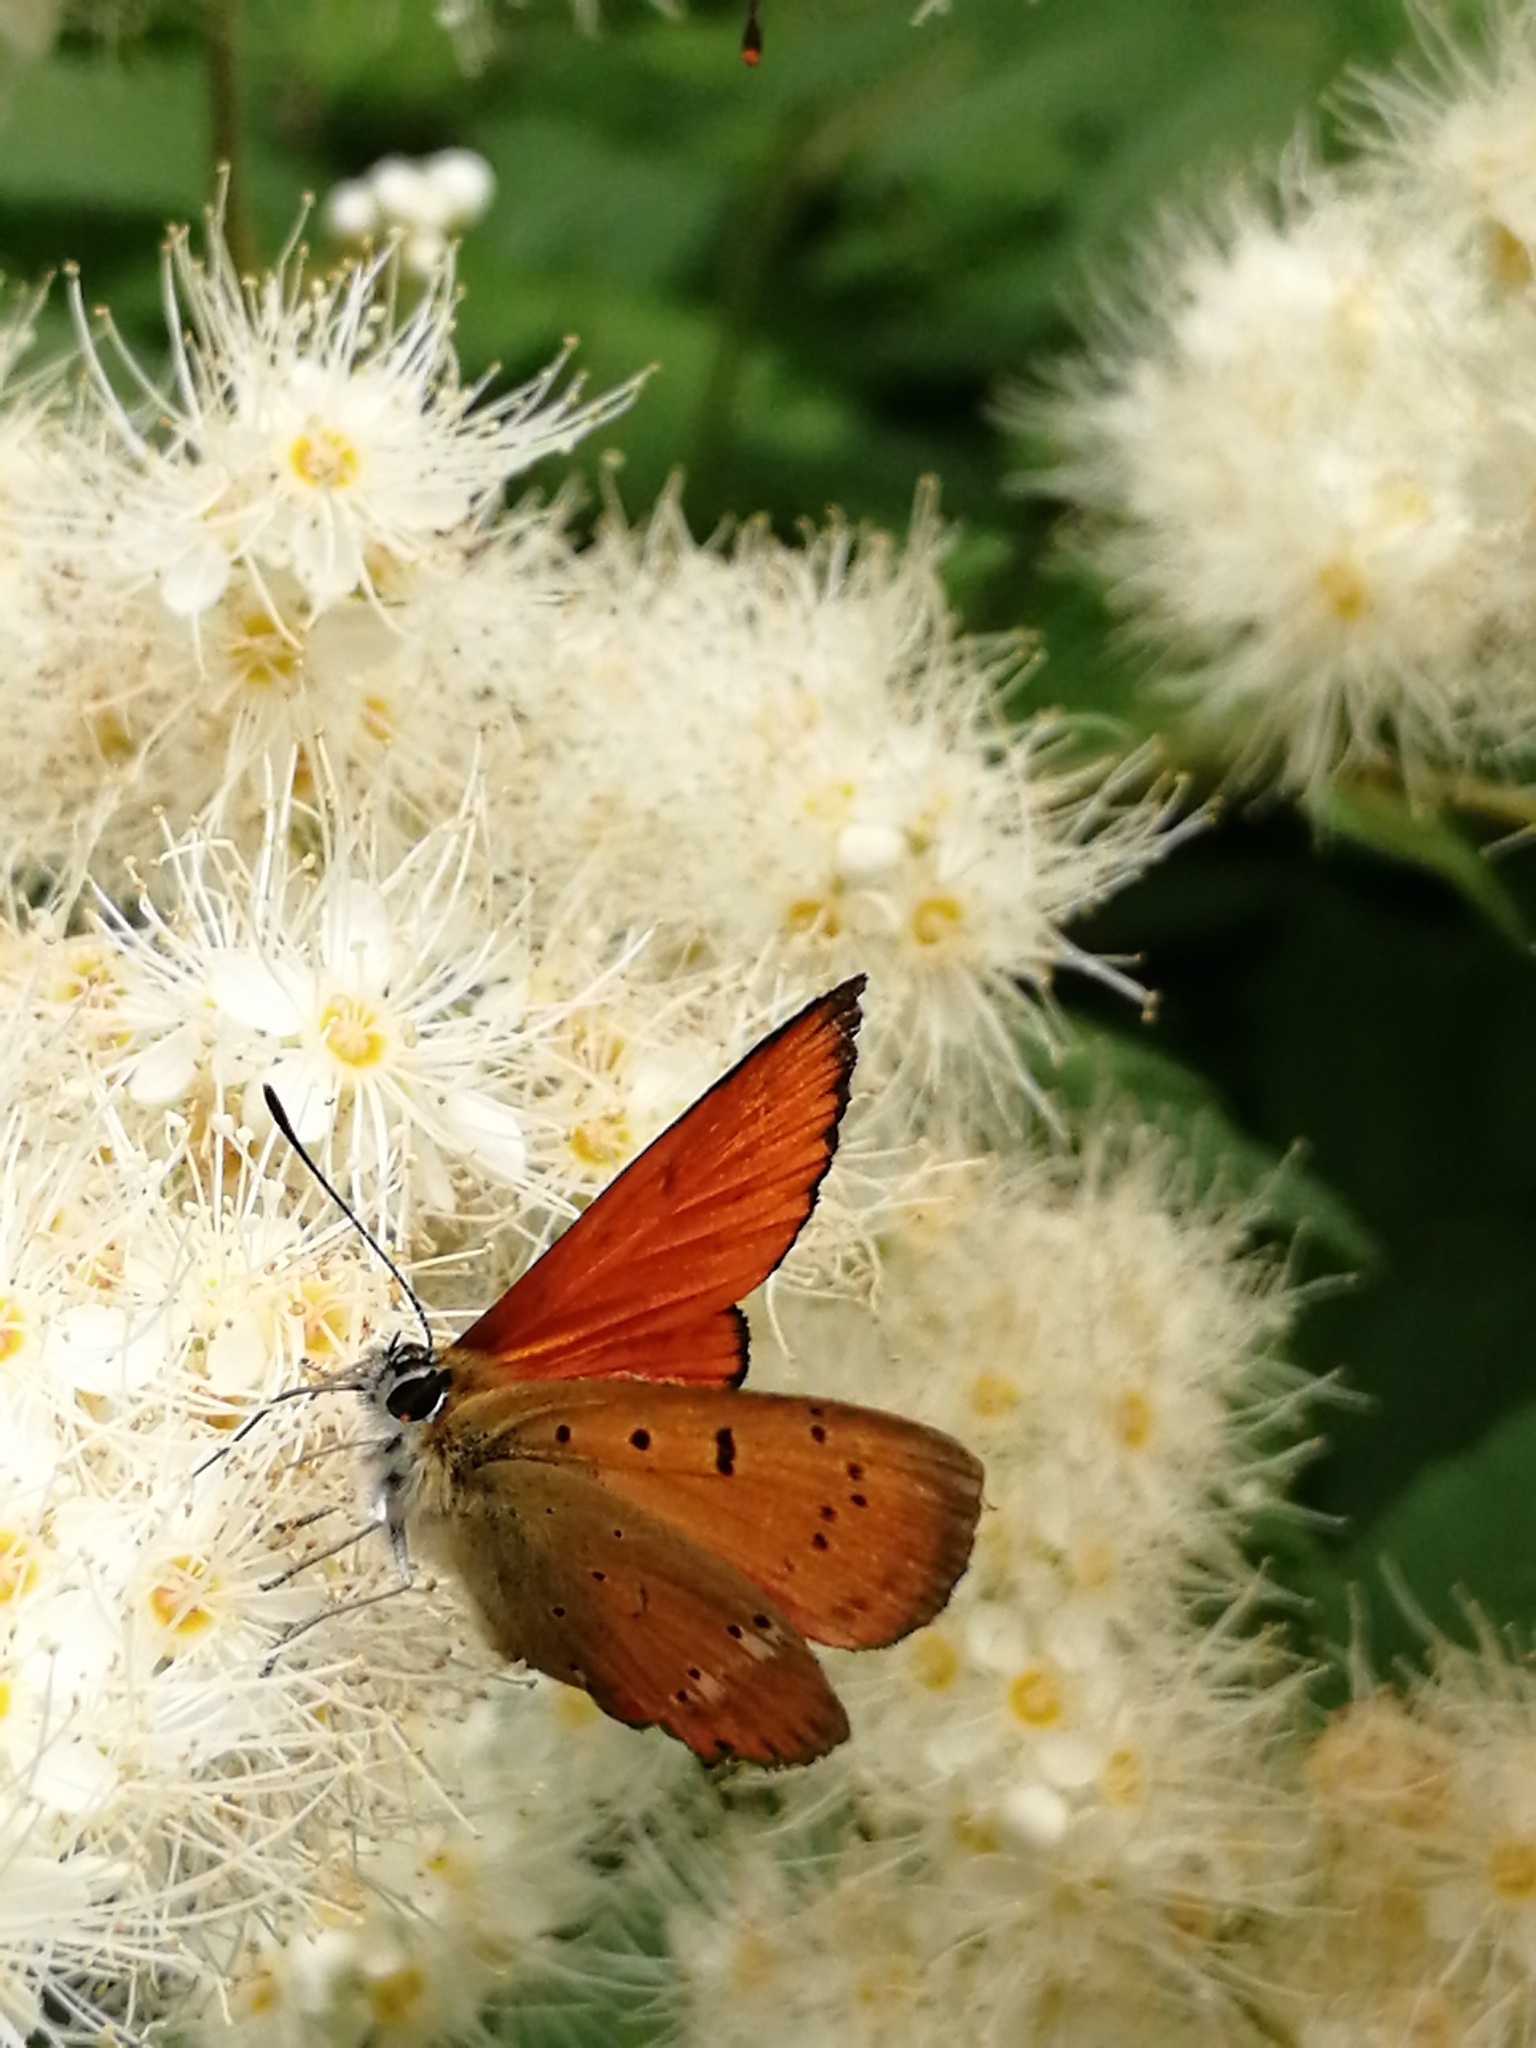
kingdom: Animalia
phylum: Arthropoda
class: Insecta
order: Lepidoptera
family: Lycaenidae
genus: Lycaena
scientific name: Lycaena virgaureae
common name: Scarce copper
